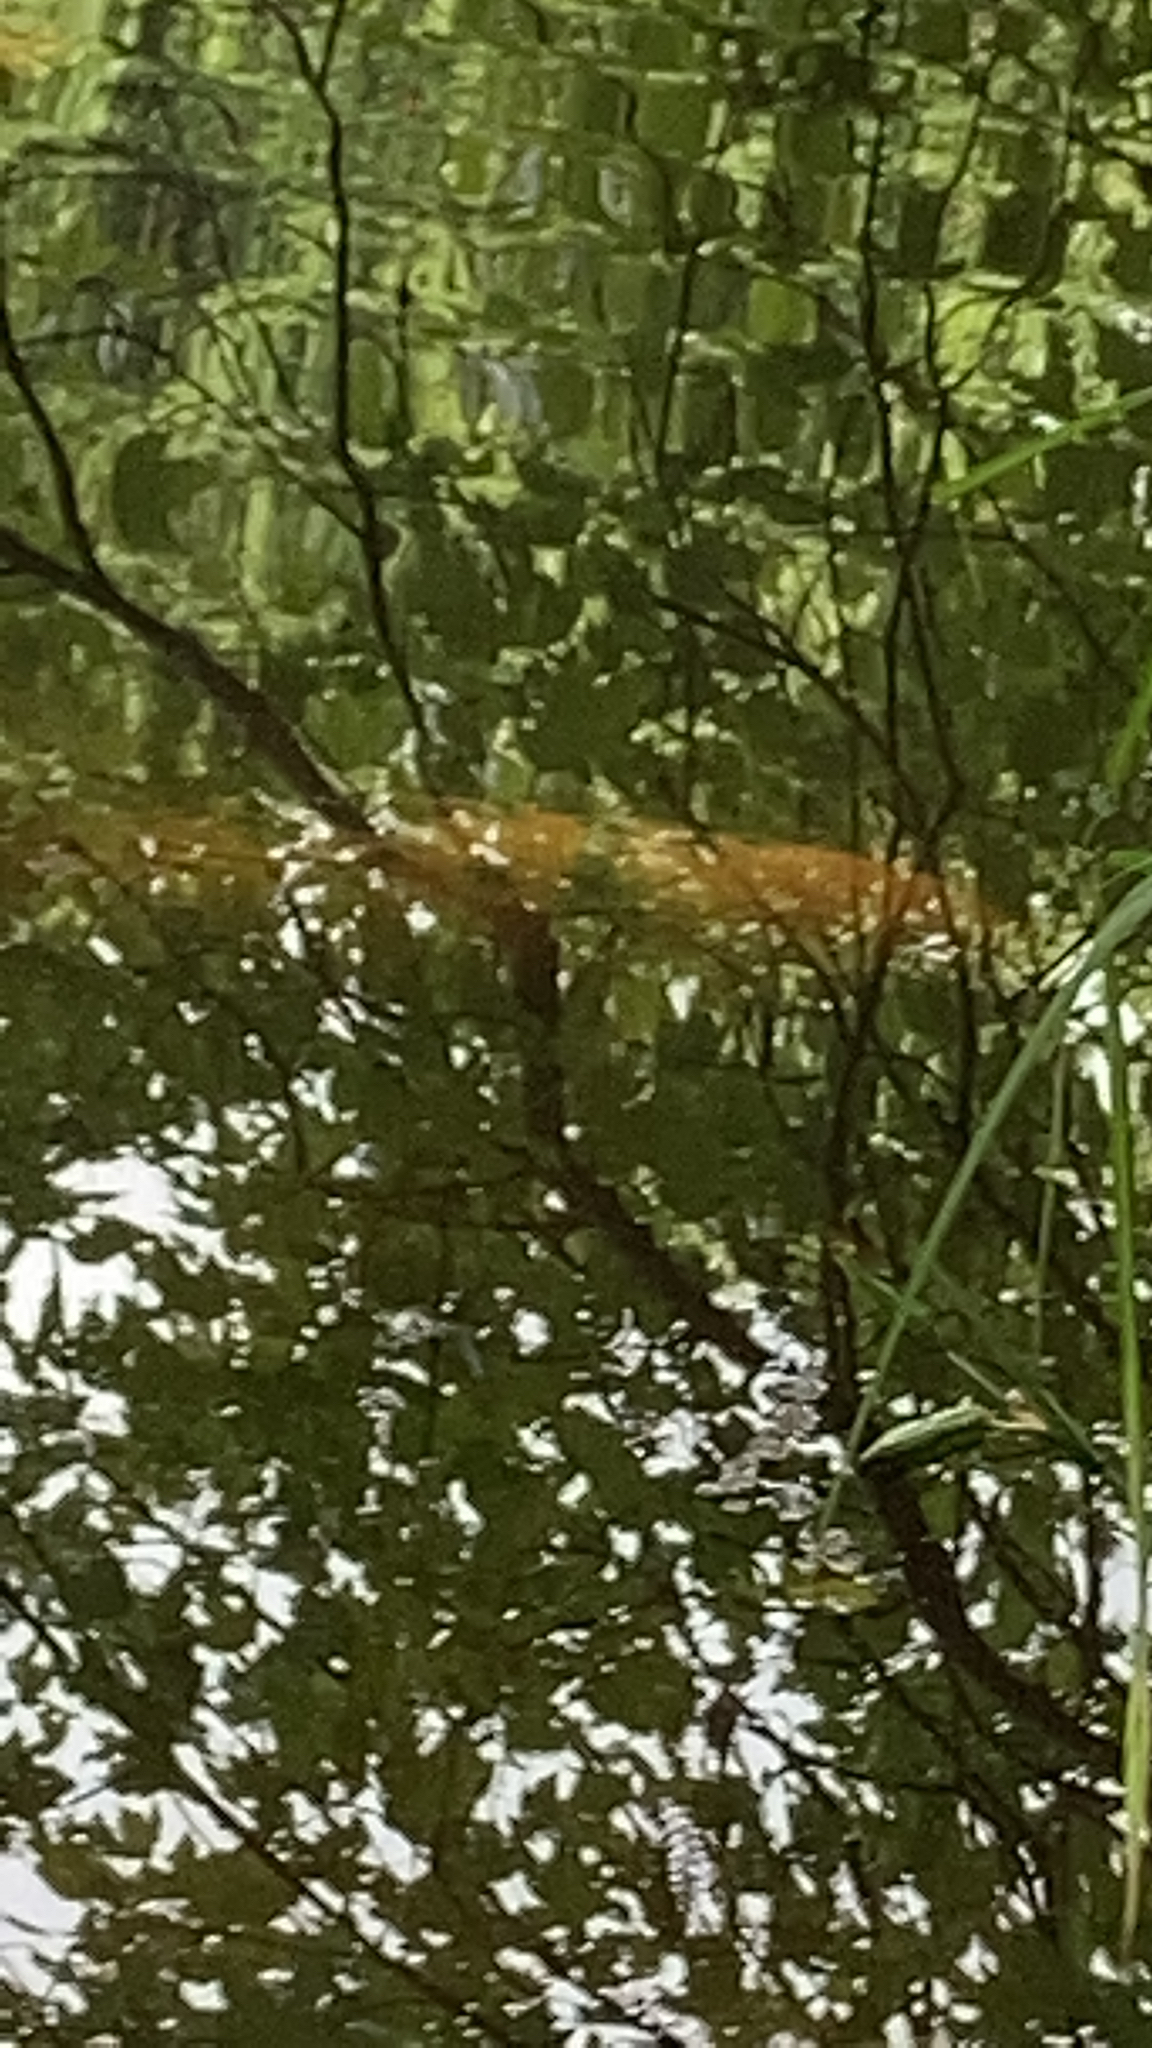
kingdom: Animalia
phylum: Chordata
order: Cypriniformes
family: Cyprinidae
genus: Cyprinus
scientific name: Cyprinus rubrofuscus
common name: Koi
